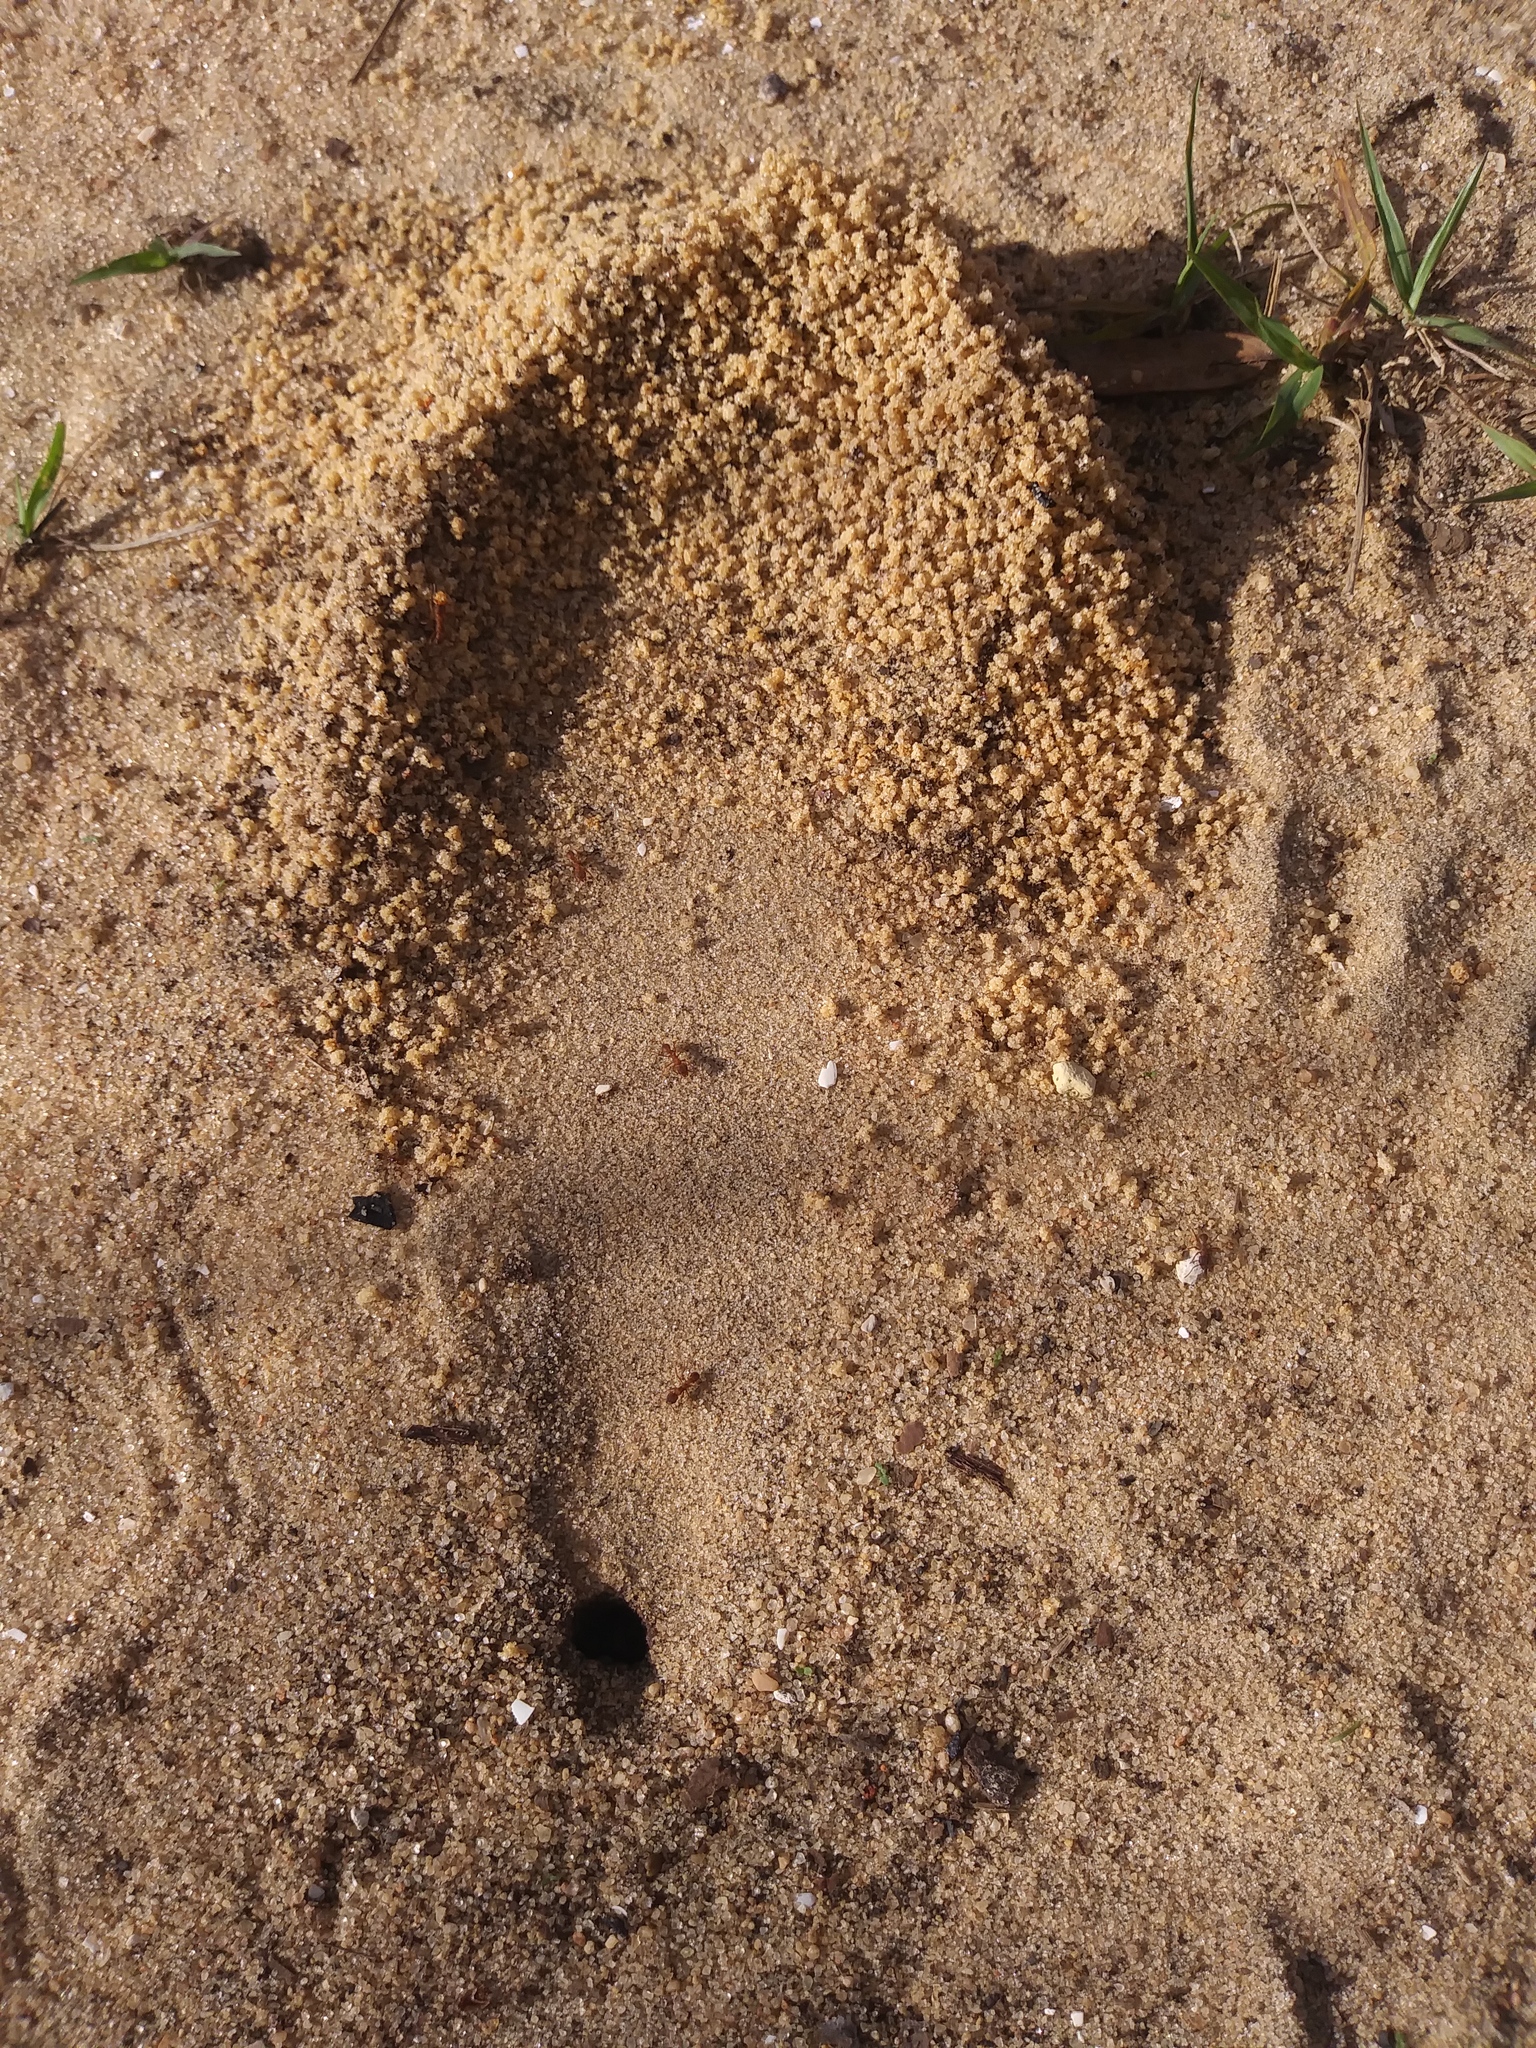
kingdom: Animalia
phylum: Arthropoda
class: Insecta
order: Hymenoptera
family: Formicidae
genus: Trachymyrmex
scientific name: Trachymyrmex septentrionalis
